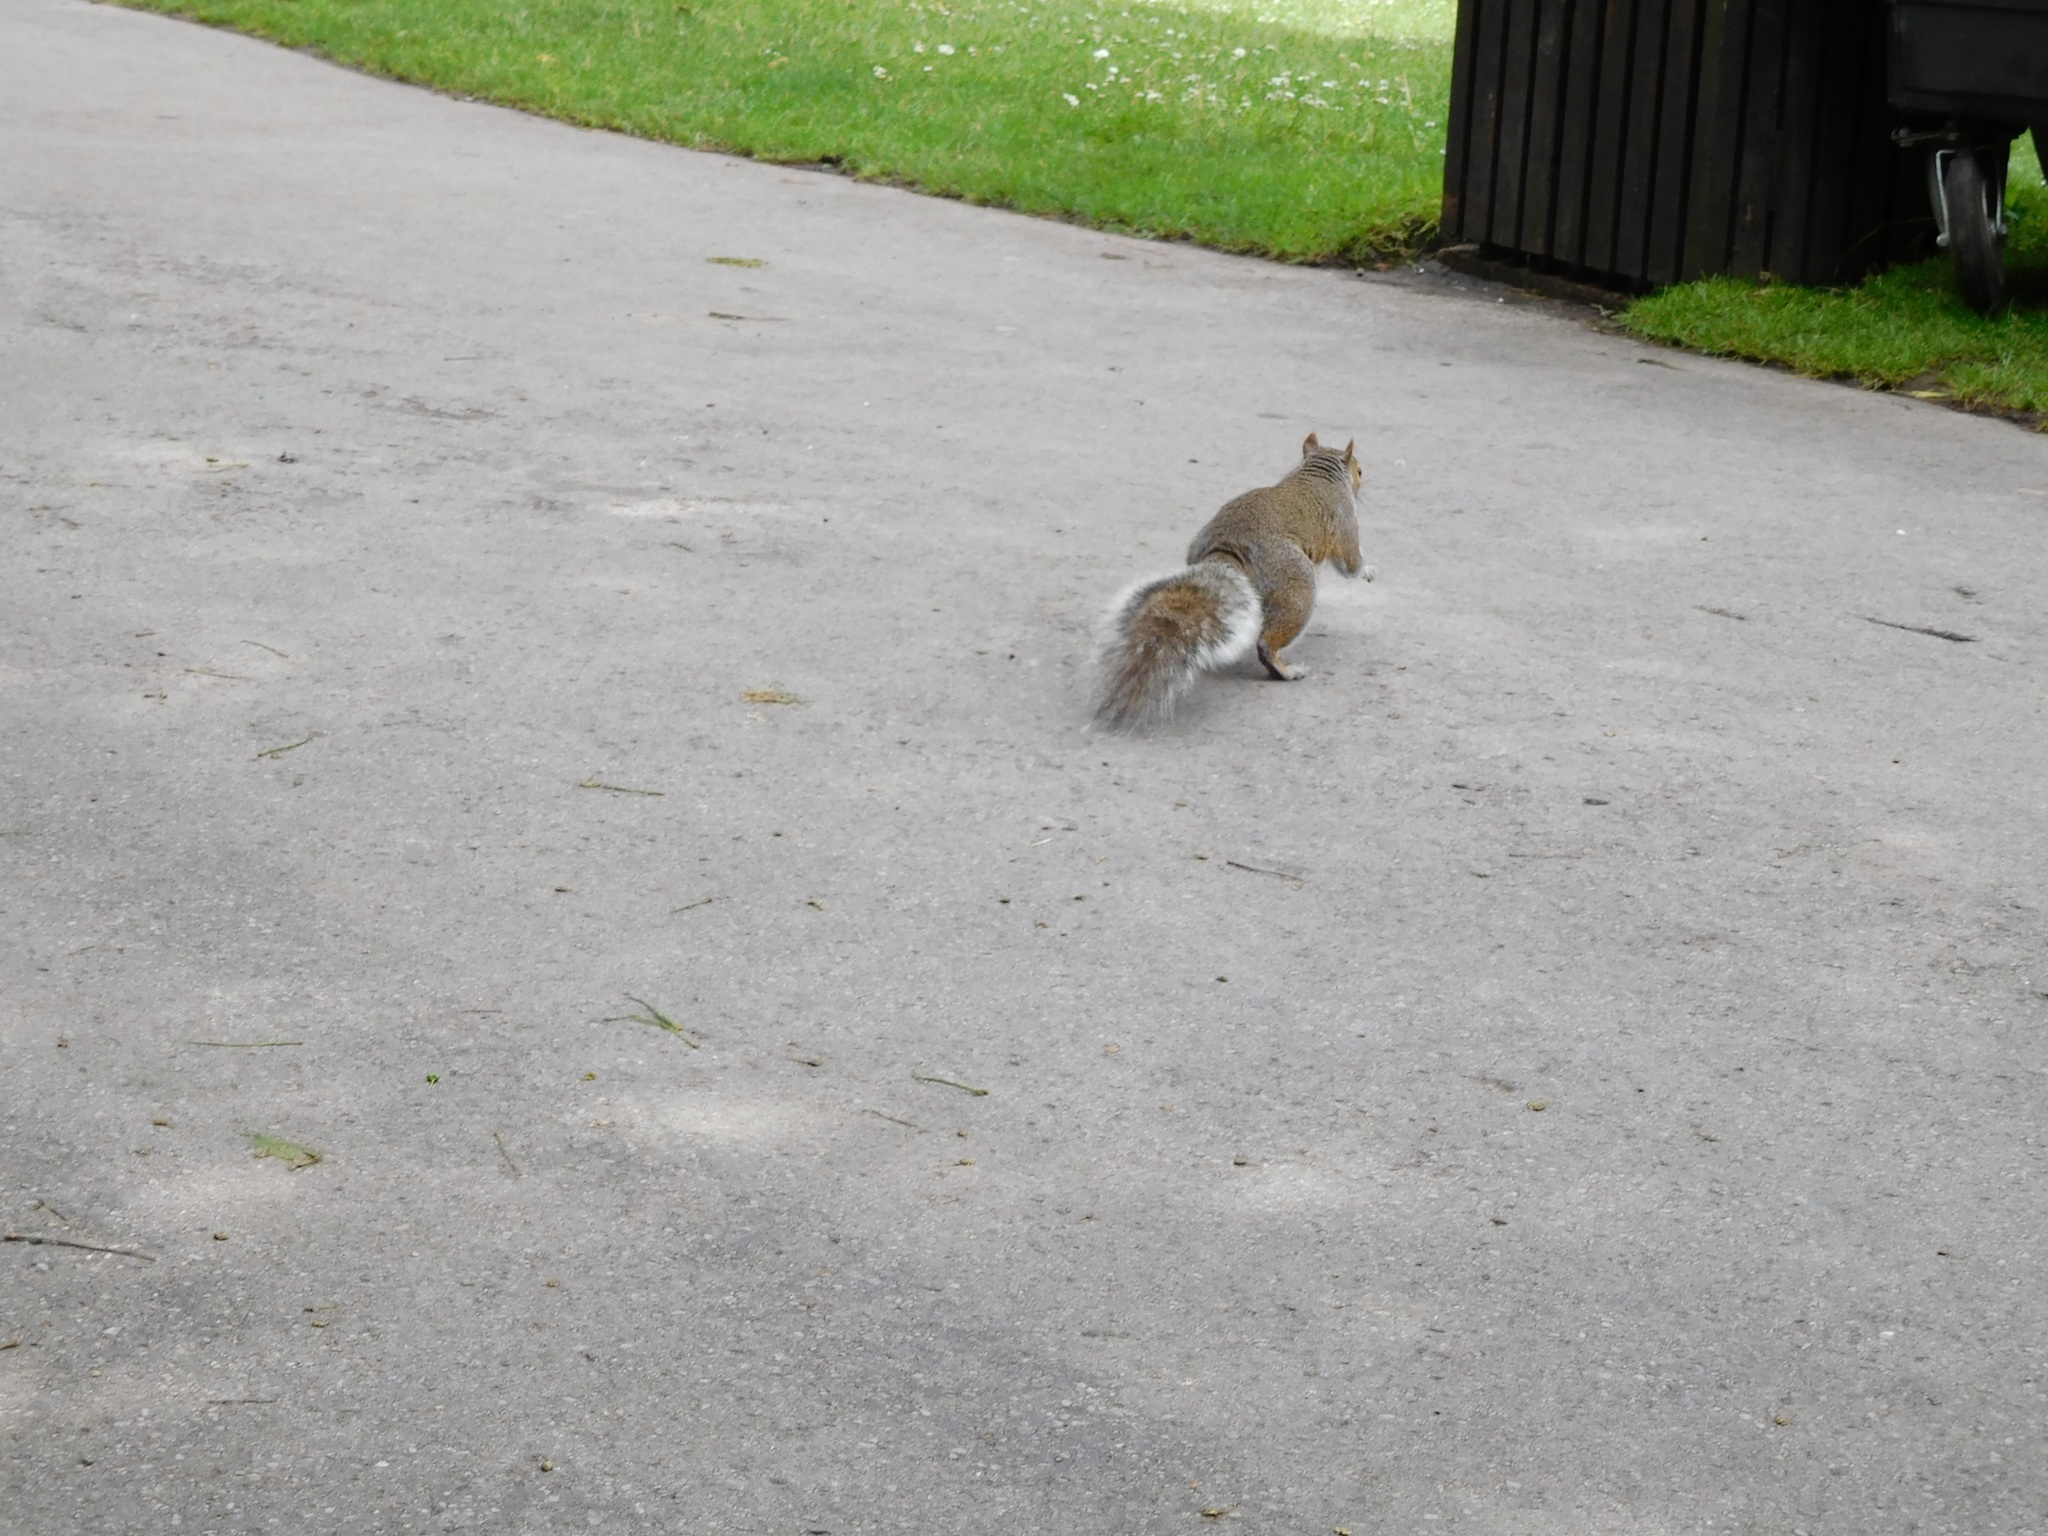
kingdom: Animalia
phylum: Chordata
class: Mammalia
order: Rodentia
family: Sciuridae
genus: Sciurus
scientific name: Sciurus carolinensis
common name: Eastern gray squirrel
